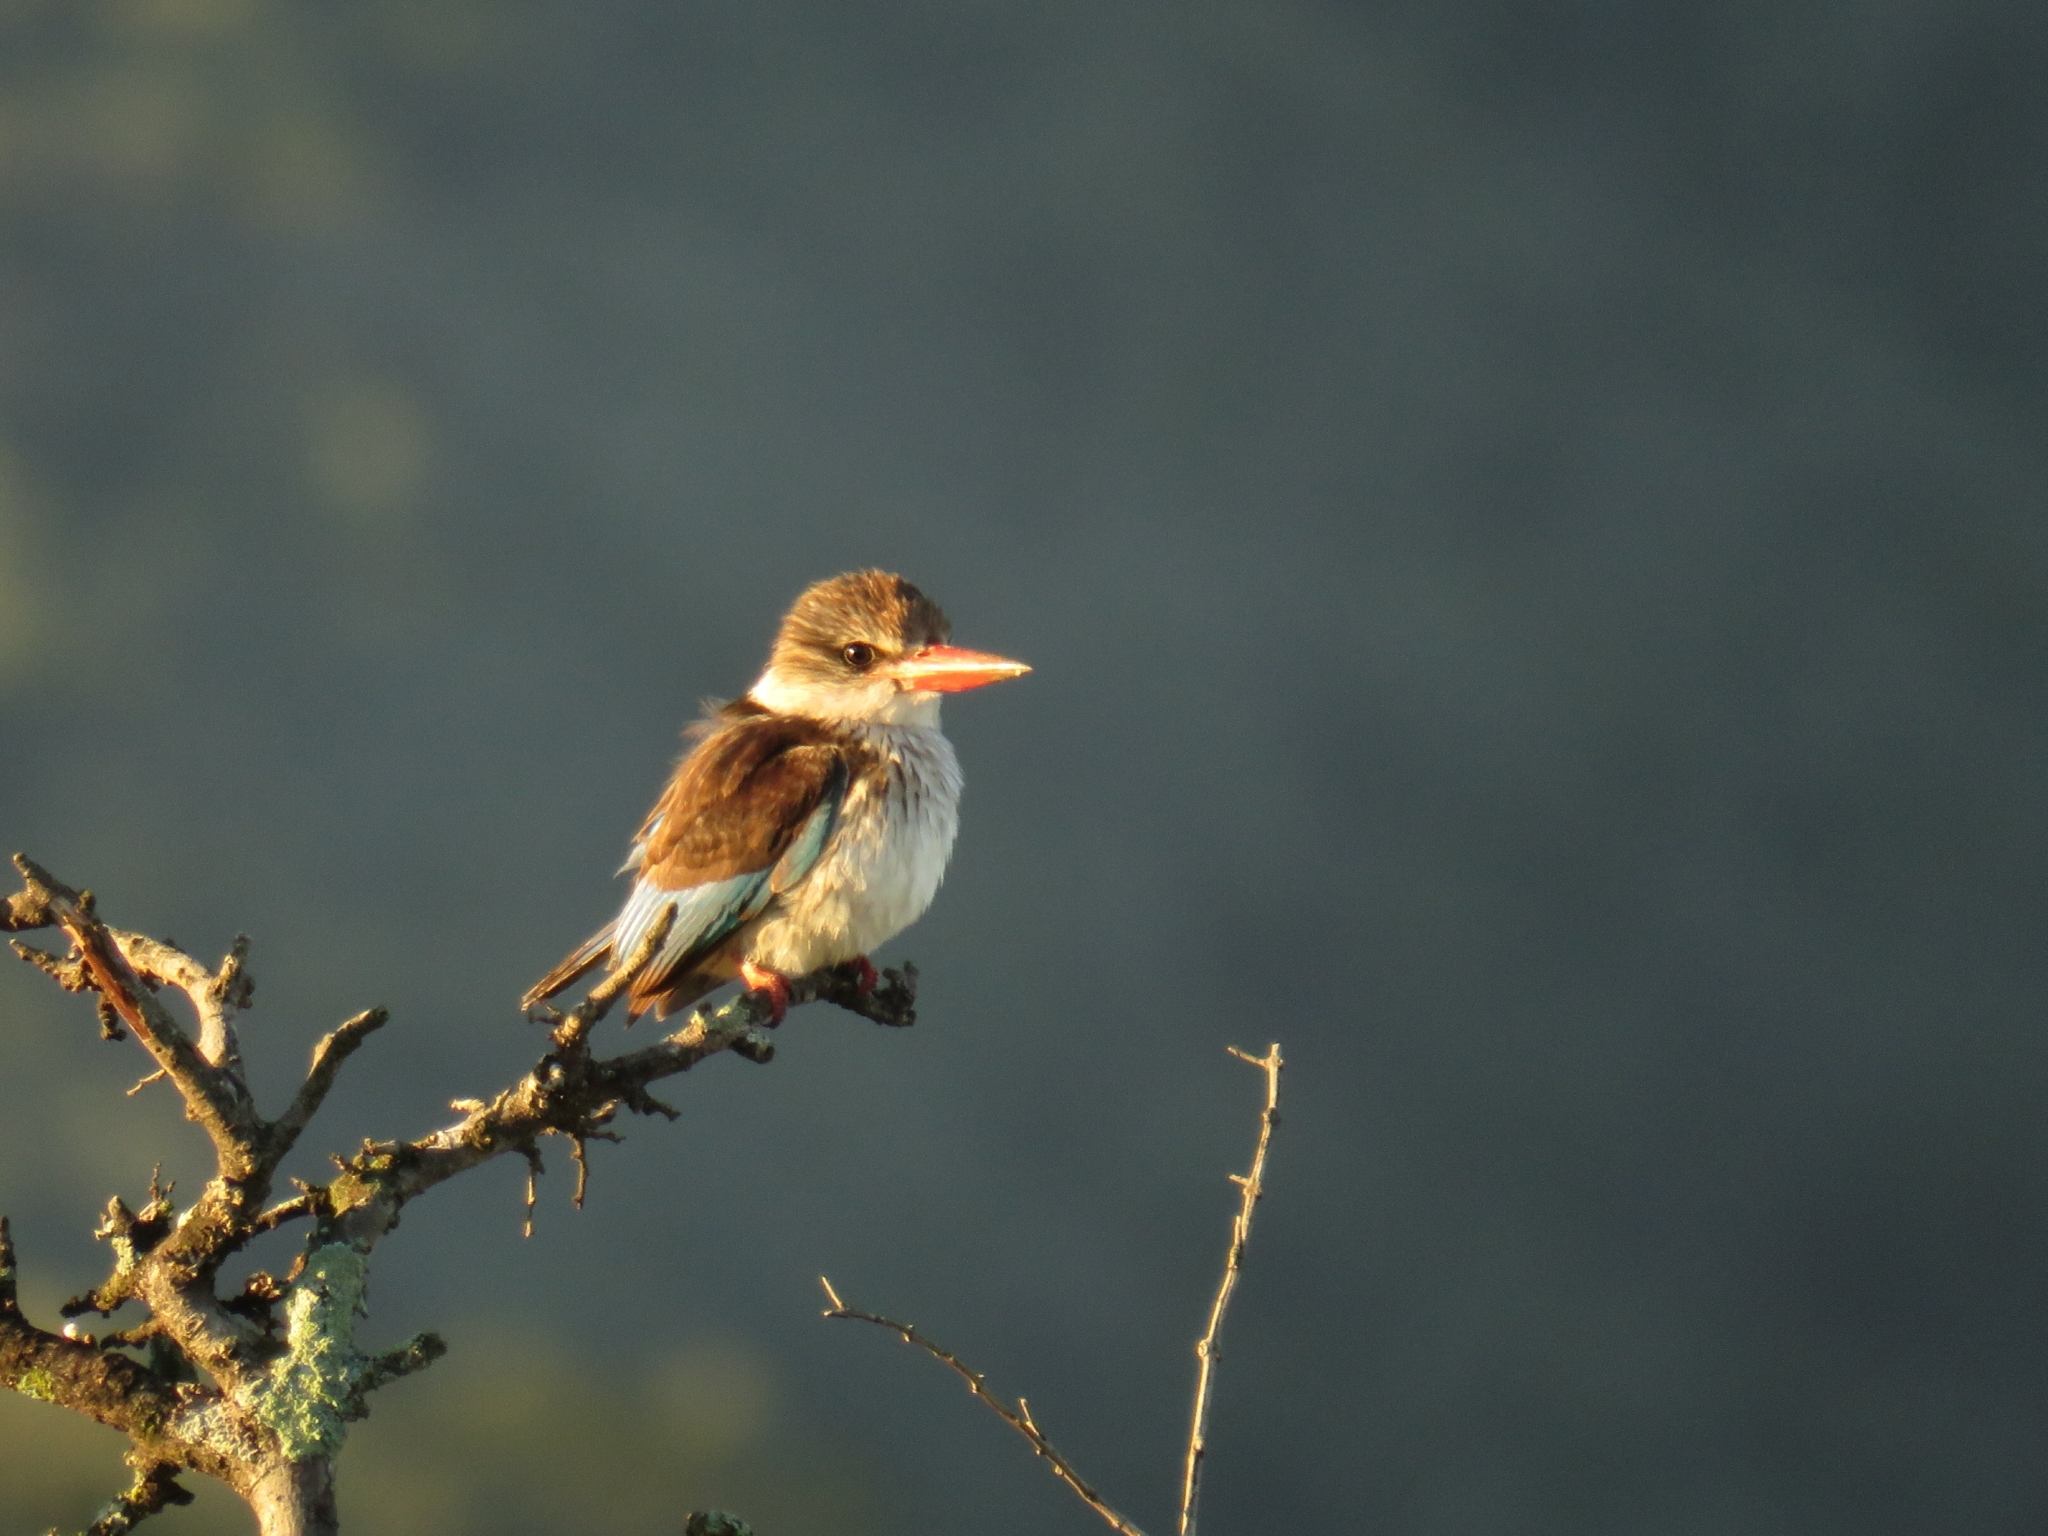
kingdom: Animalia
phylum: Chordata
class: Aves
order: Coraciiformes
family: Alcedinidae
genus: Halcyon
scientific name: Halcyon albiventris
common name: Brown-hooded kingfisher
